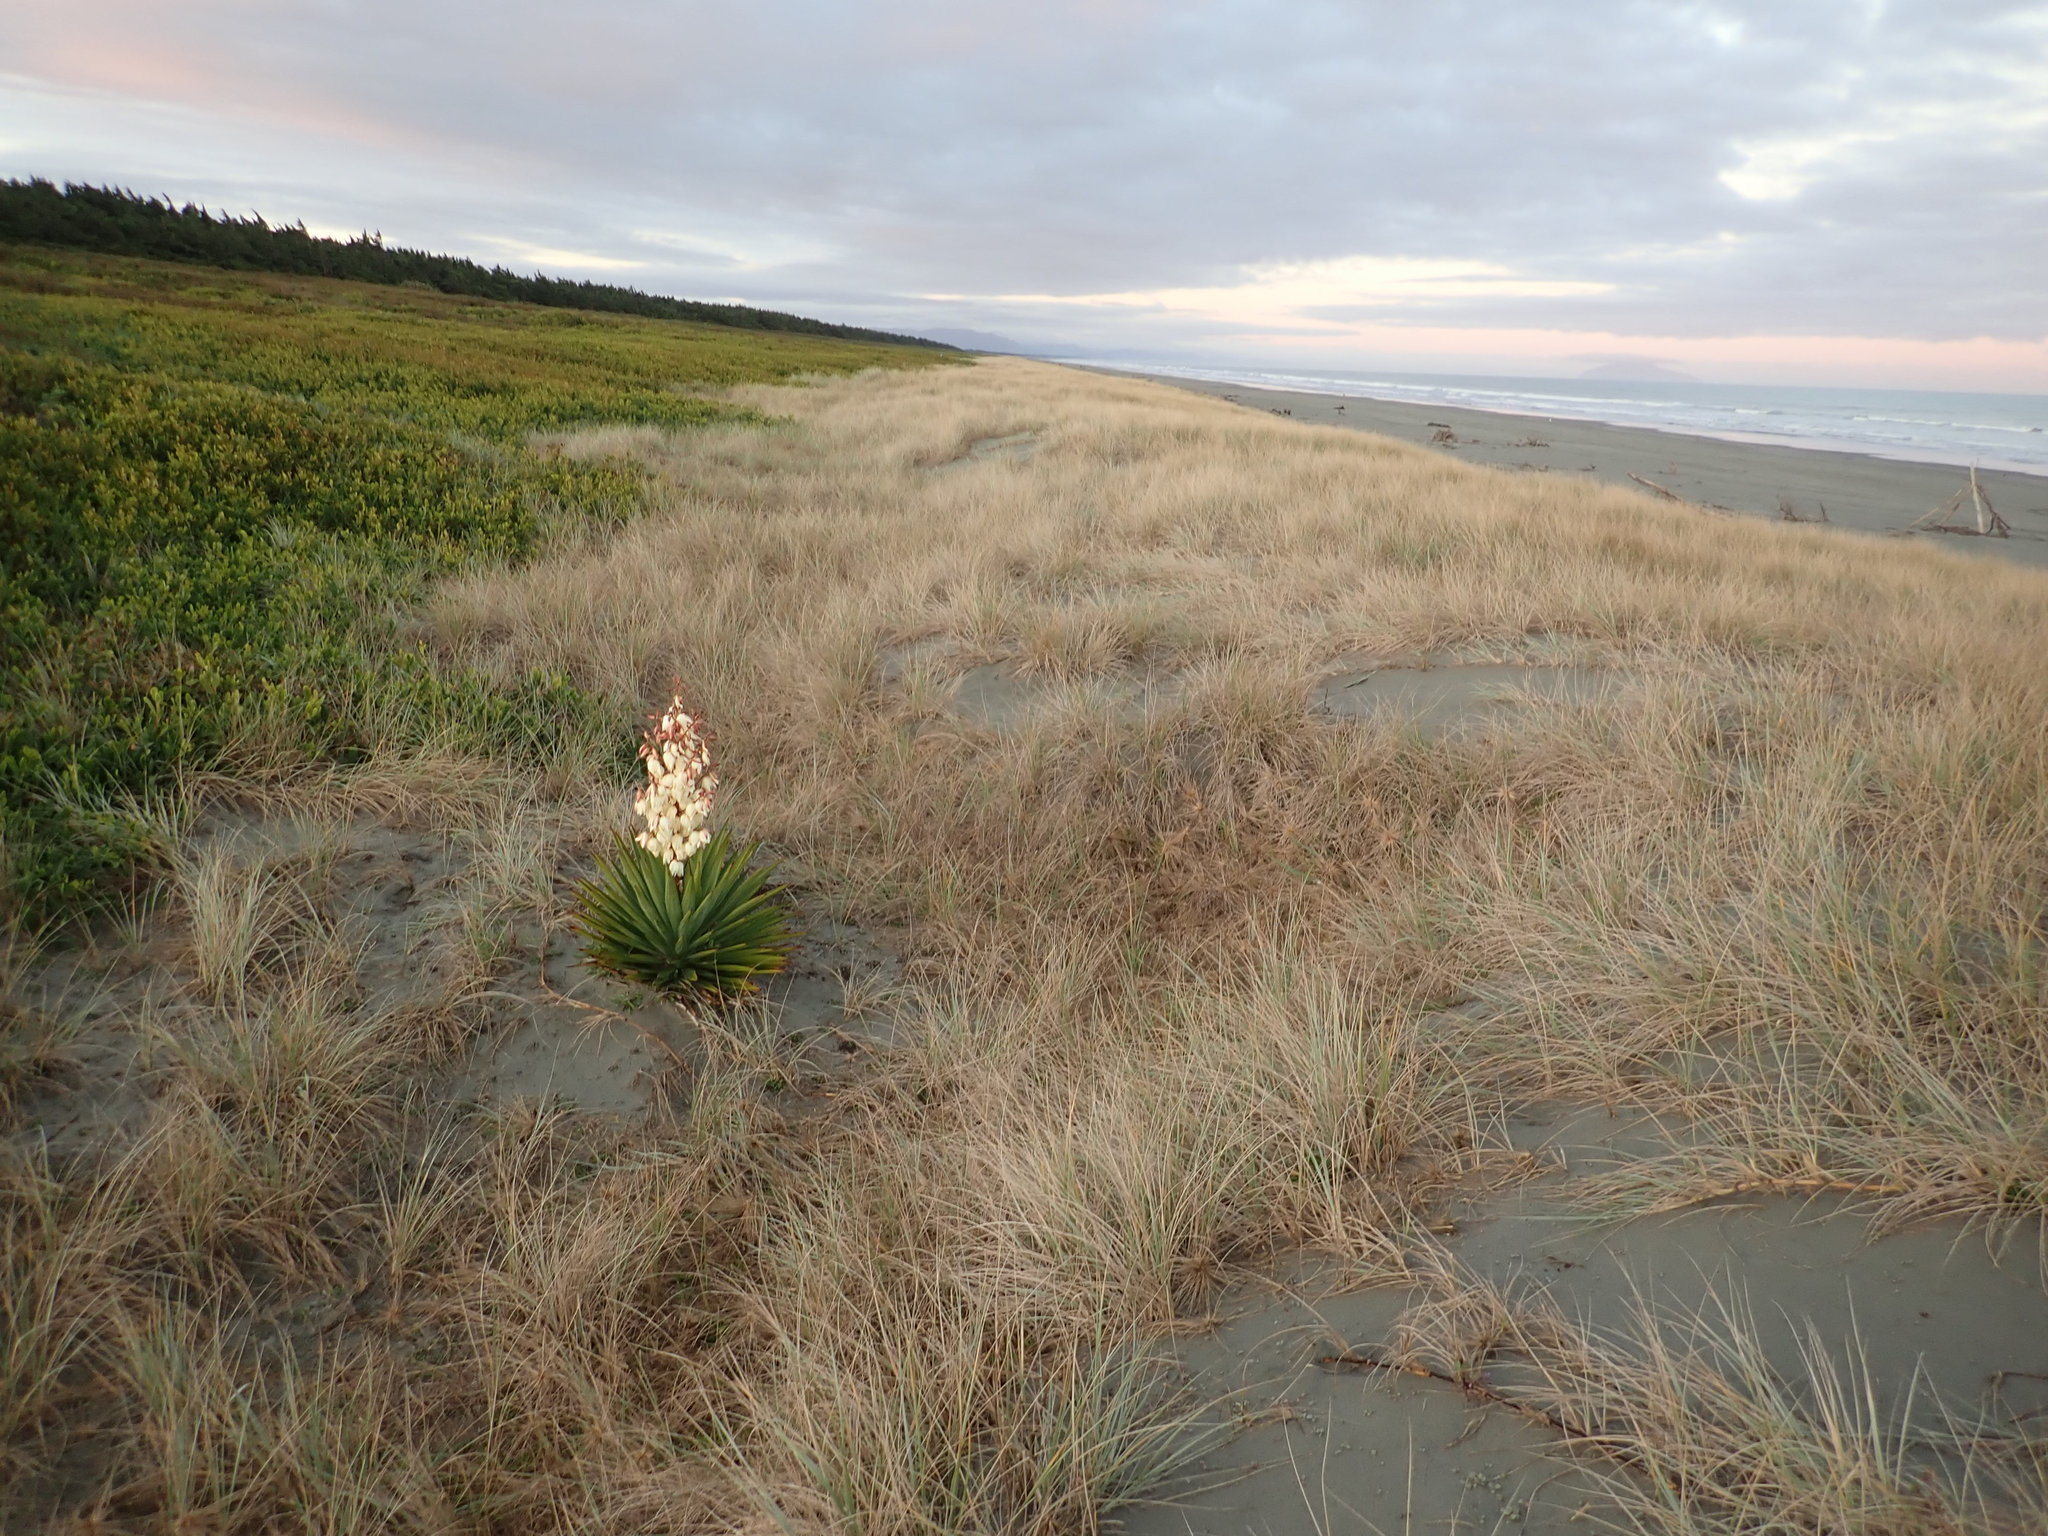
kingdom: Plantae
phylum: Tracheophyta
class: Liliopsida
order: Asparagales
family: Asparagaceae
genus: Yucca
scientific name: Yucca gloriosa
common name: Spanish-dagger
